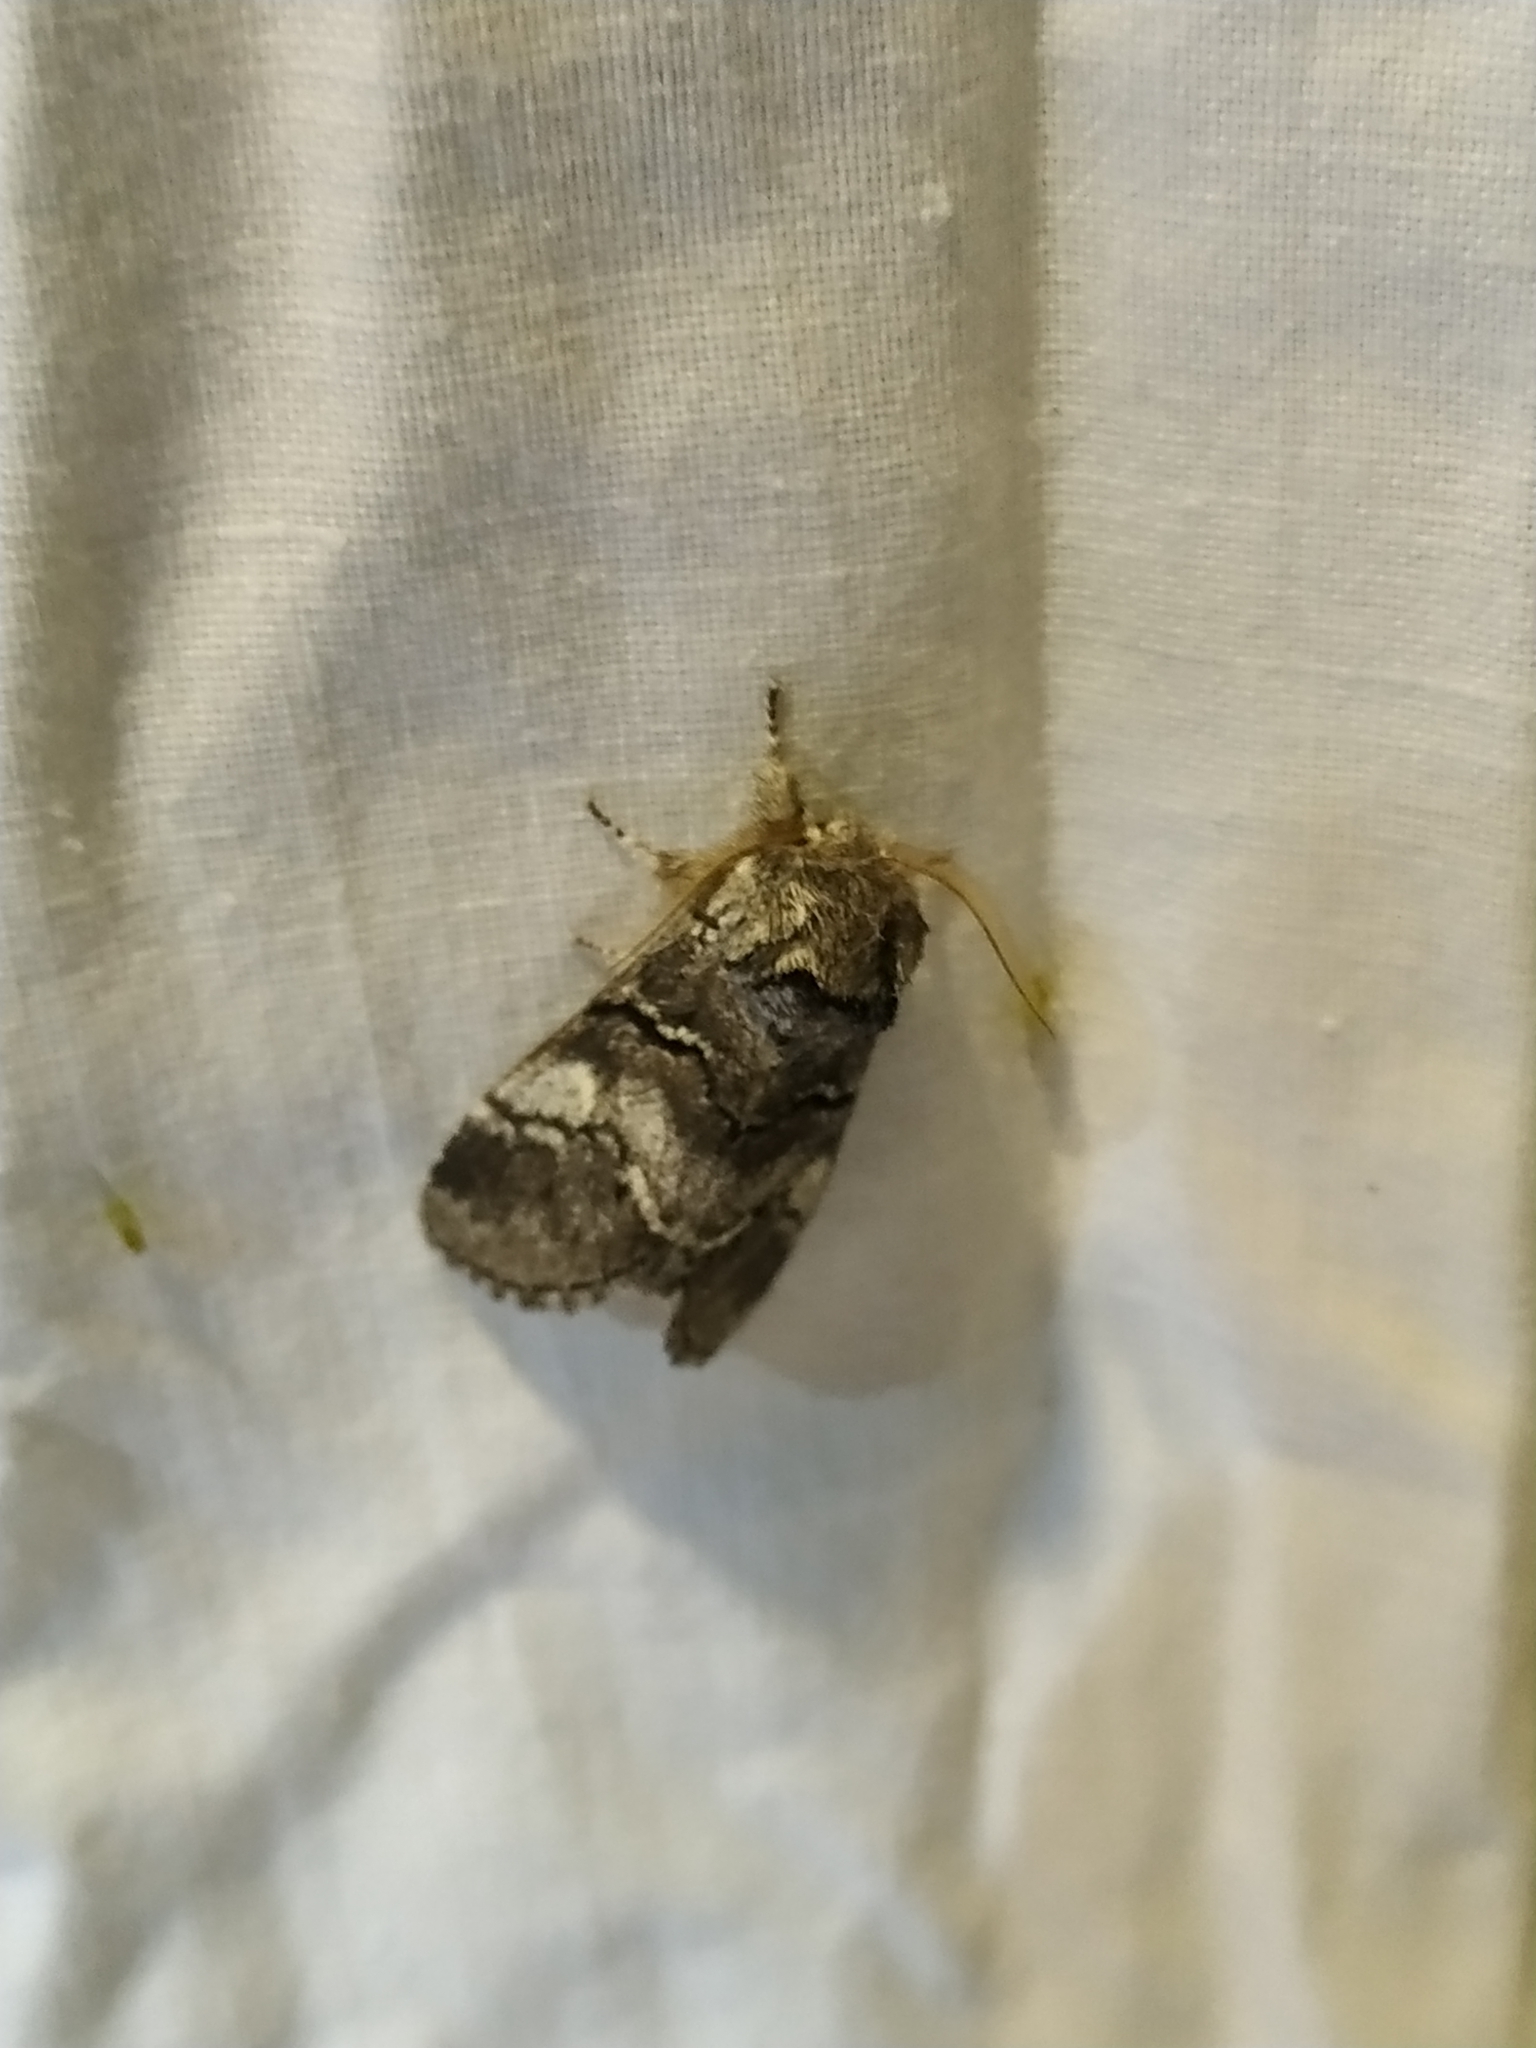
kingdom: Animalia
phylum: Arthropoda
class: Insecta
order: Lepidoptera
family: Notodontidae
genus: Drymonia
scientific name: Drymonia querna
